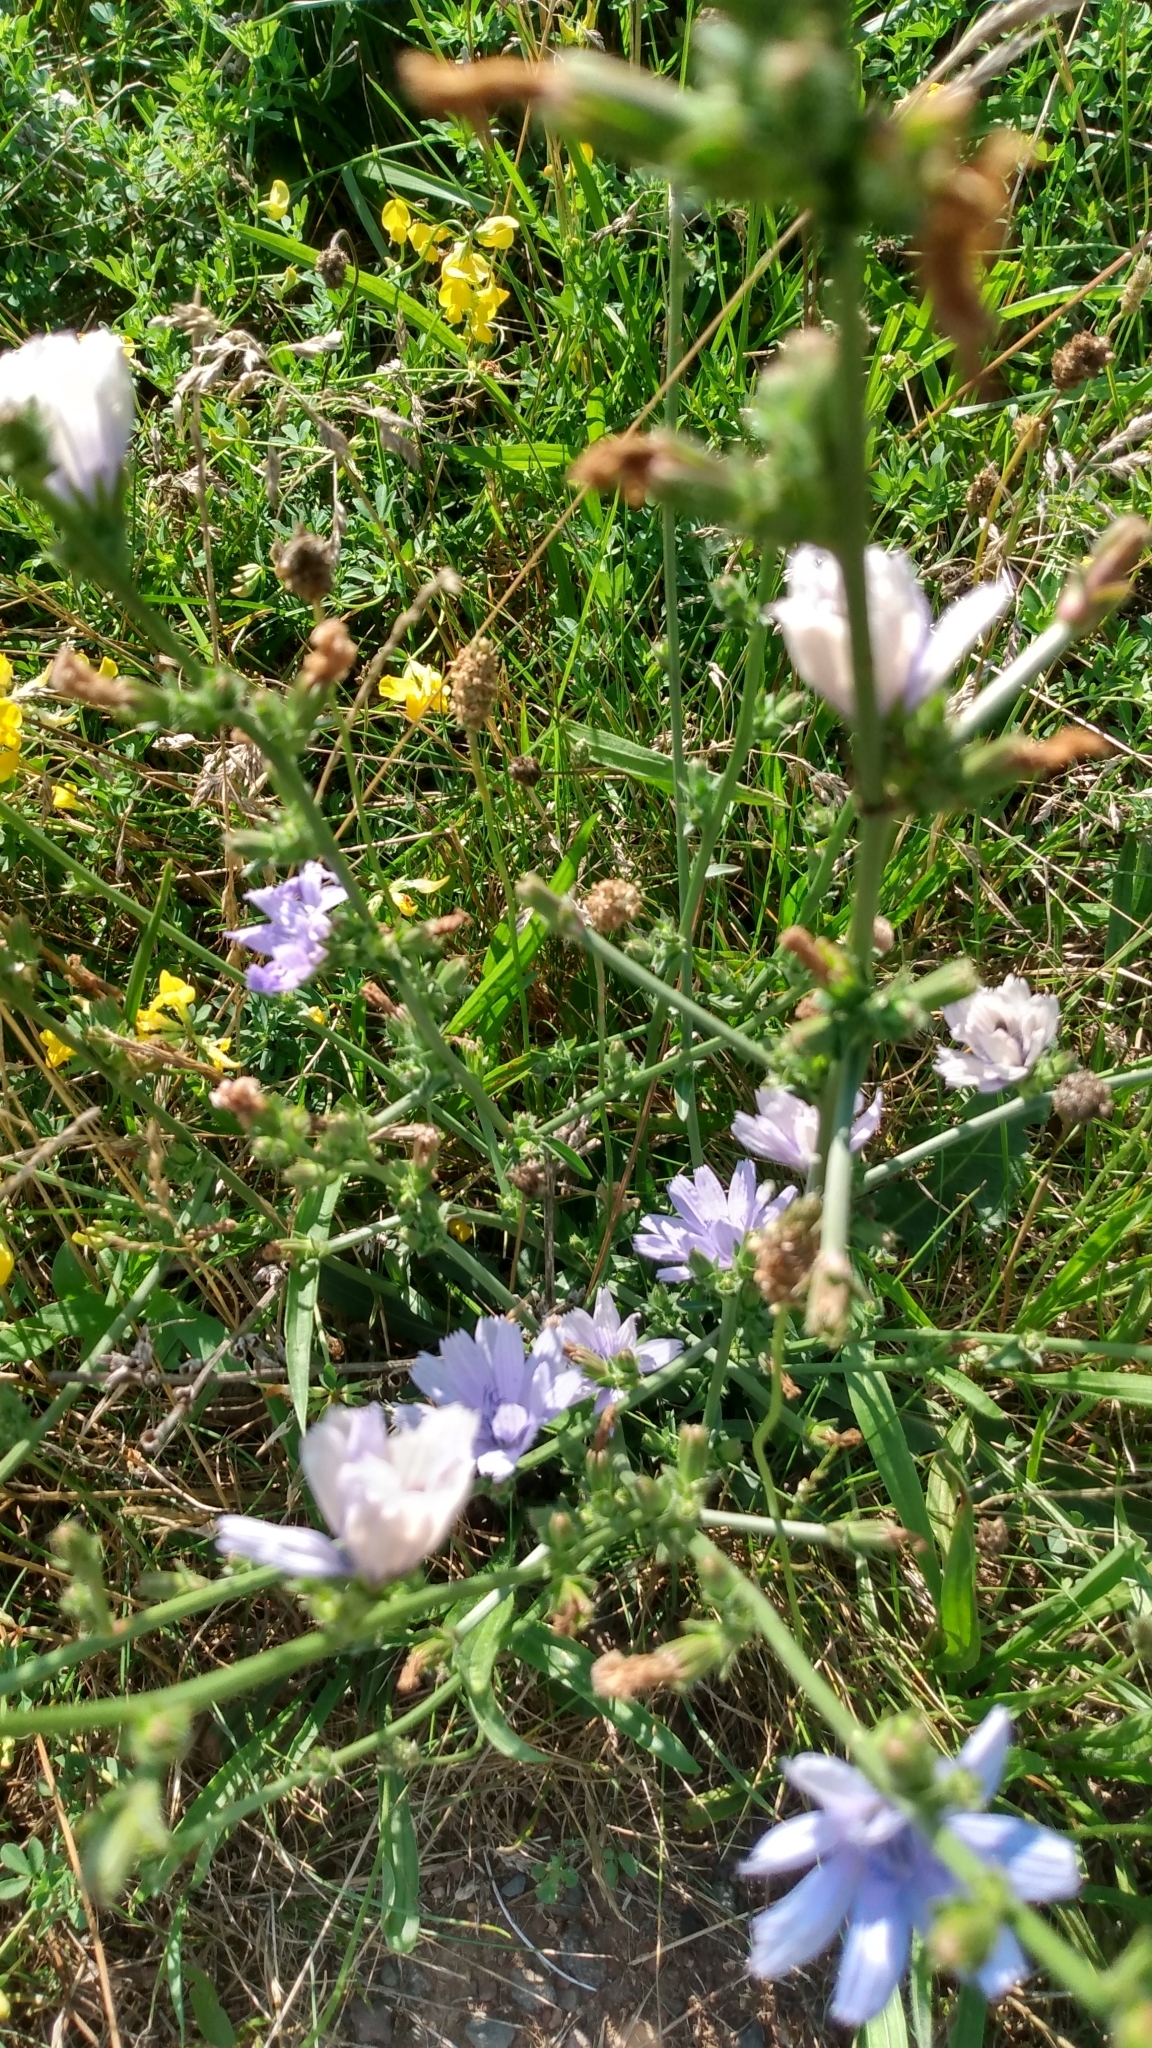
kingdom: Plantae
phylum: Tracheophyta
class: Magnoliopsida
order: Asterales
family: Asteraceae
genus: Cichorium
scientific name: Cichorium intybus
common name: Chicory
